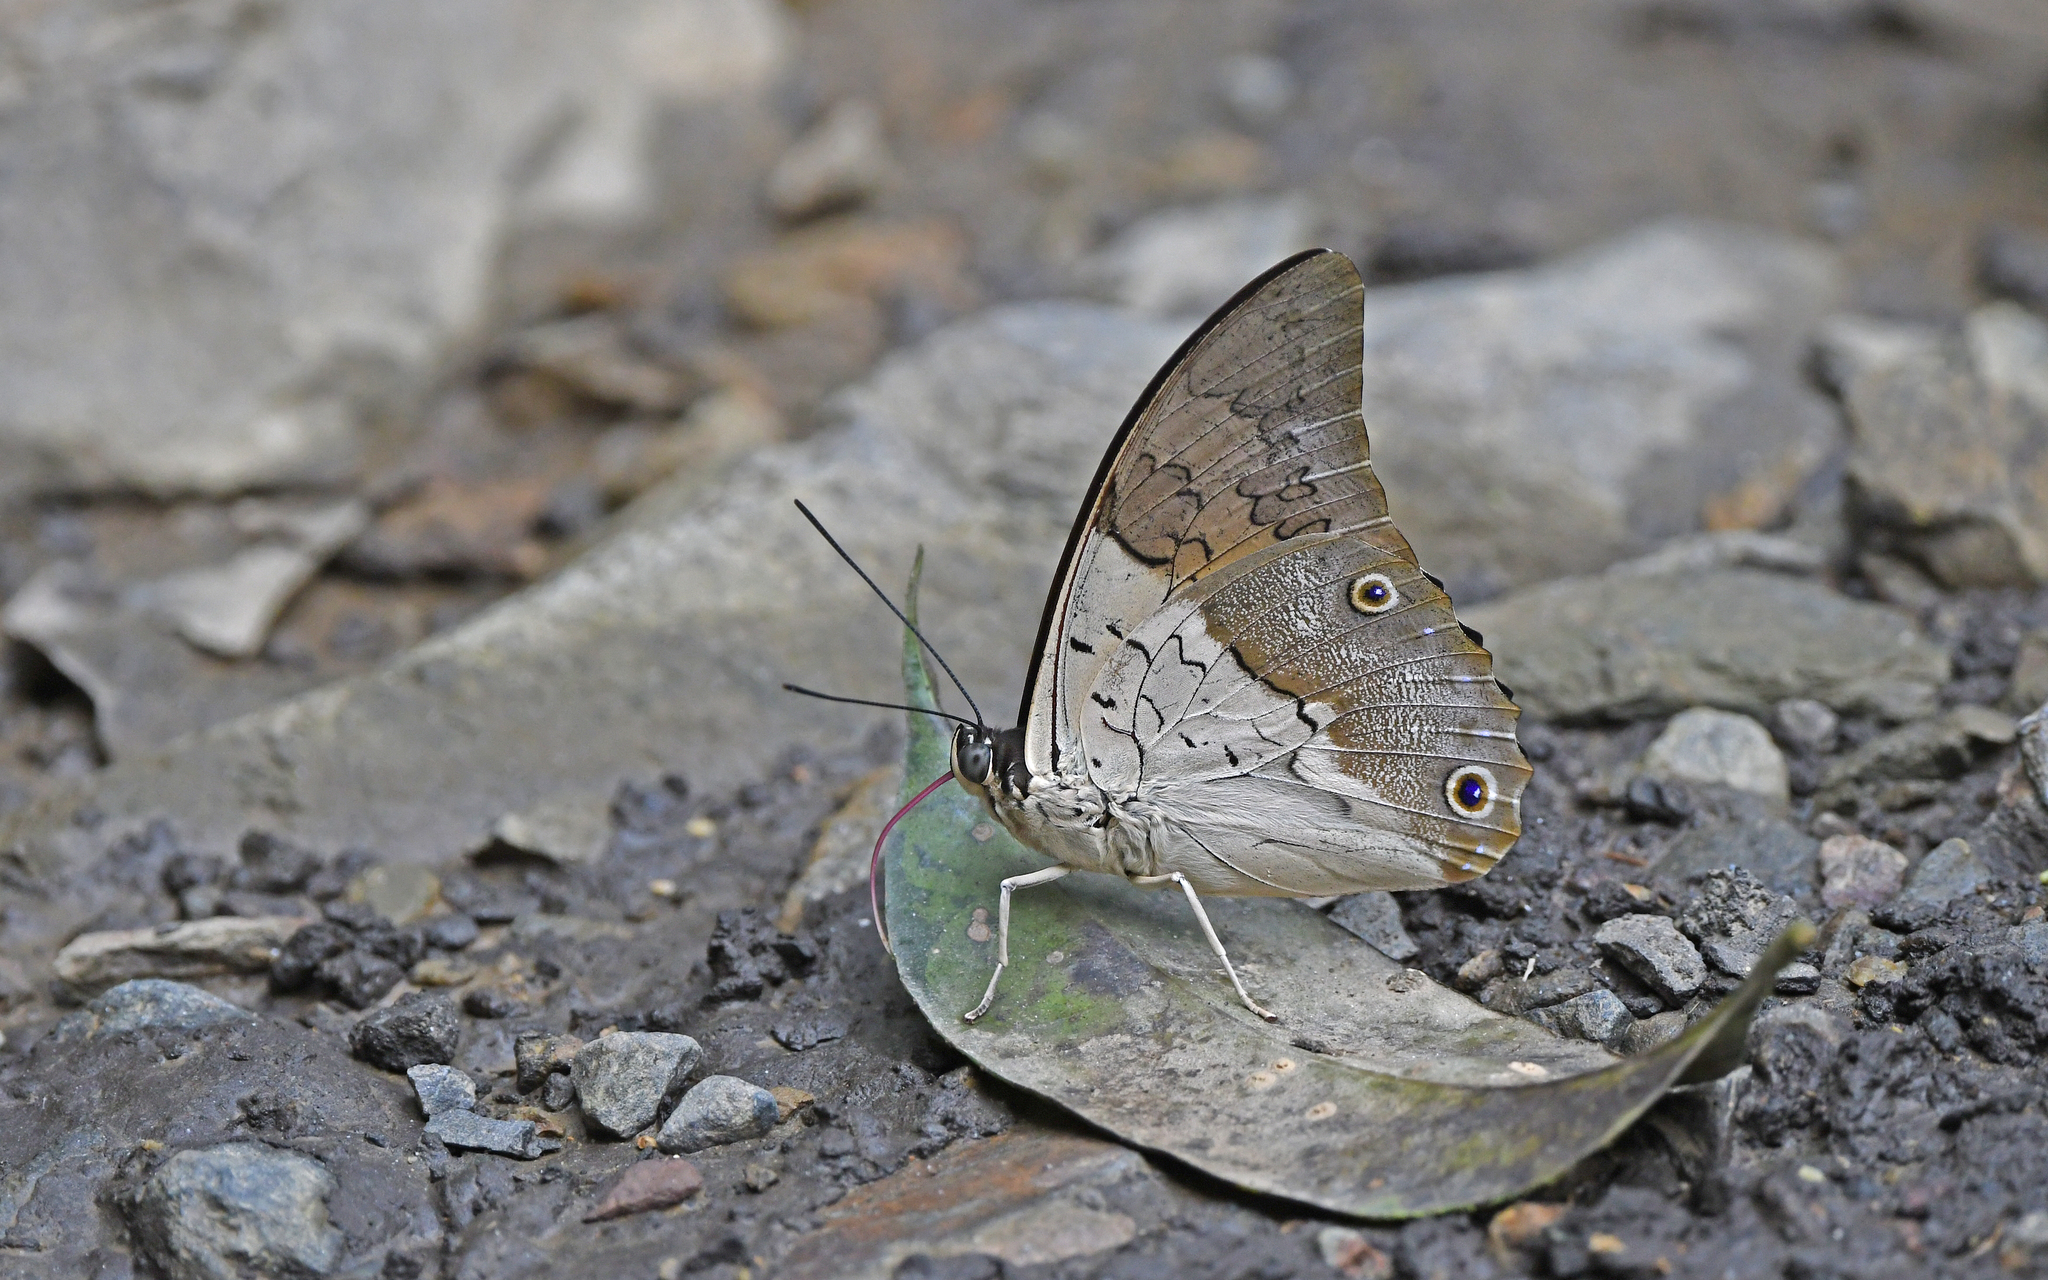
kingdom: Animalia
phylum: Arthropoda
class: Insecta
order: Lepidoptera
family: Nymphalidae
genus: Prepona
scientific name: Prepona laertes
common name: Butterfly
